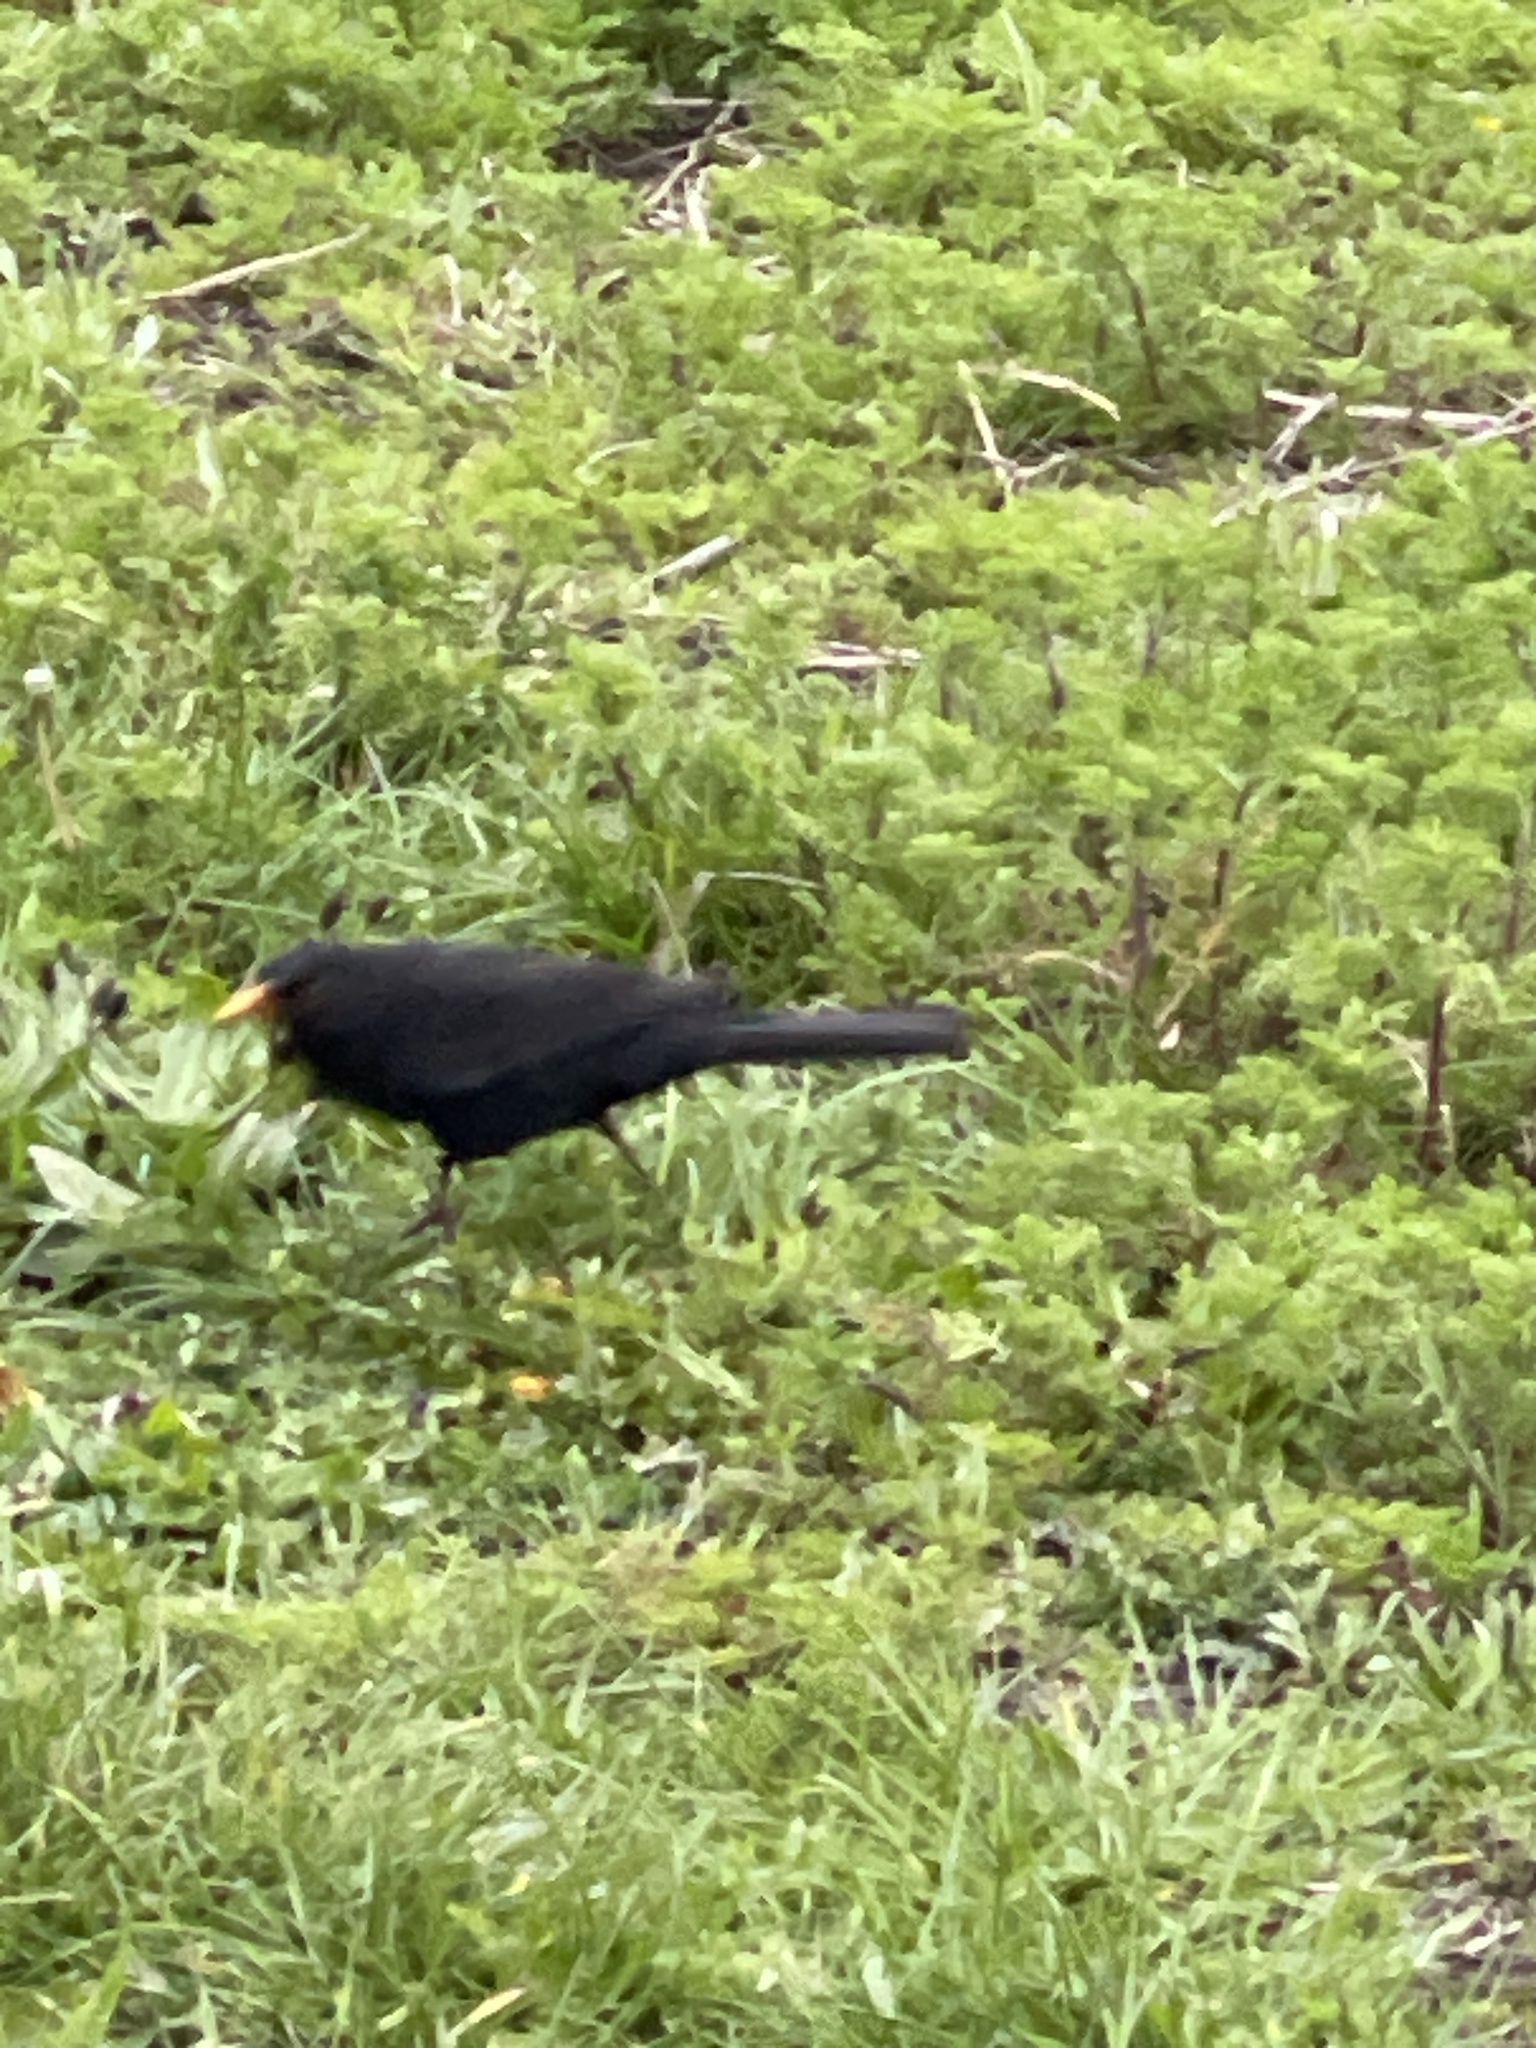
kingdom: Animalia
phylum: Chordata
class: Aves
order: Passeriformes
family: Turdidae
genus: Turdus
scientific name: Turdus merula
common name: Common blackbird
